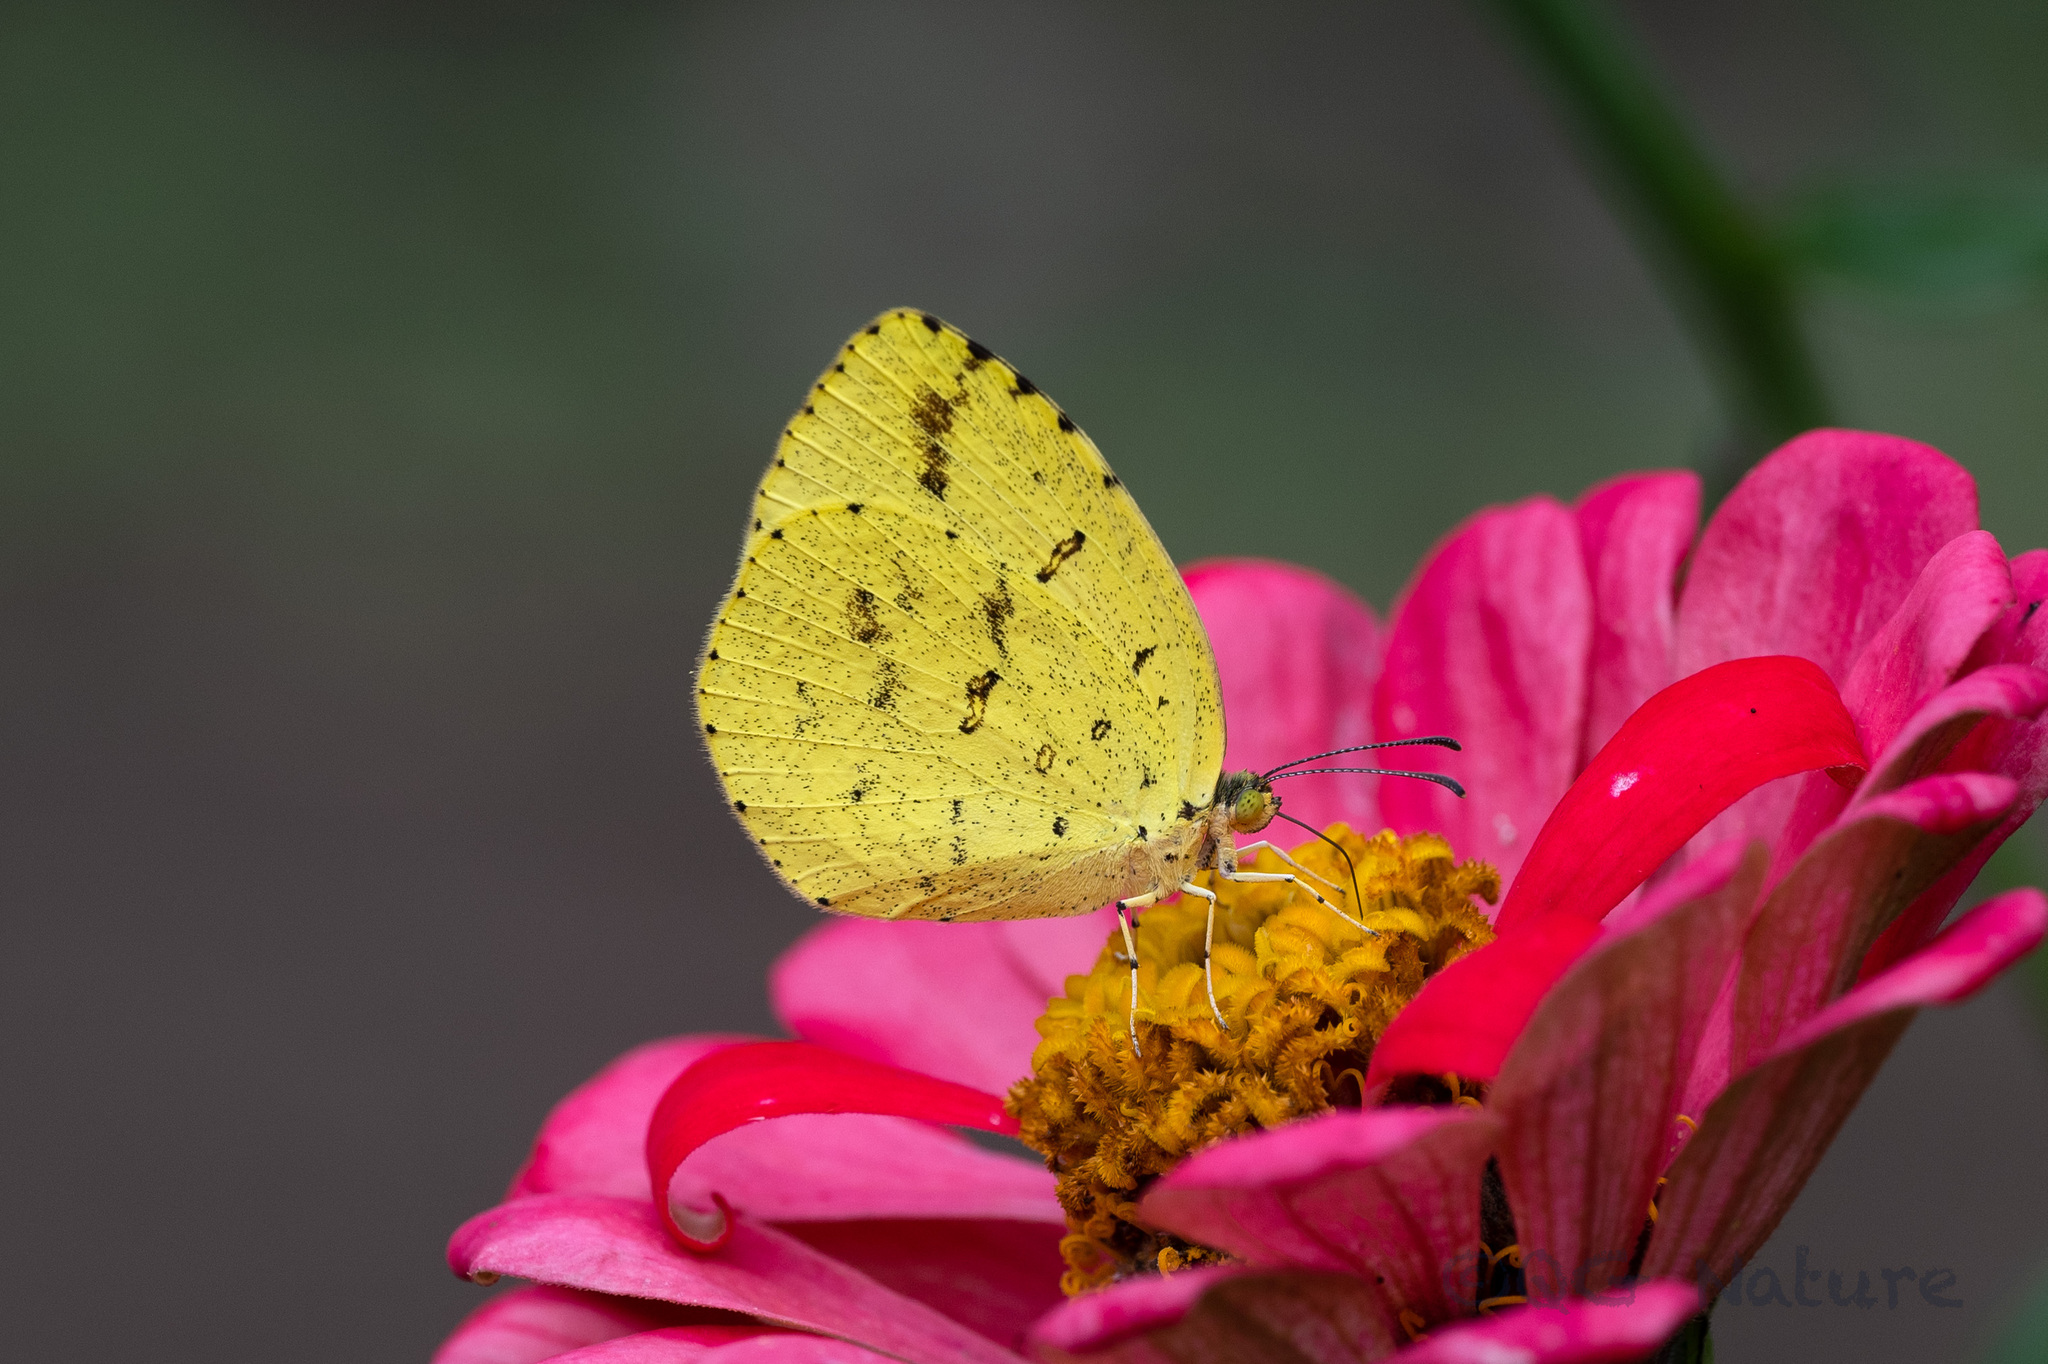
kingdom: Animalia
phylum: Arthropoda
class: Insecta
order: Lepidoptera
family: Pieridae
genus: Eurema
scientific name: Eurema mandarina
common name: Japanese common grass yellow
